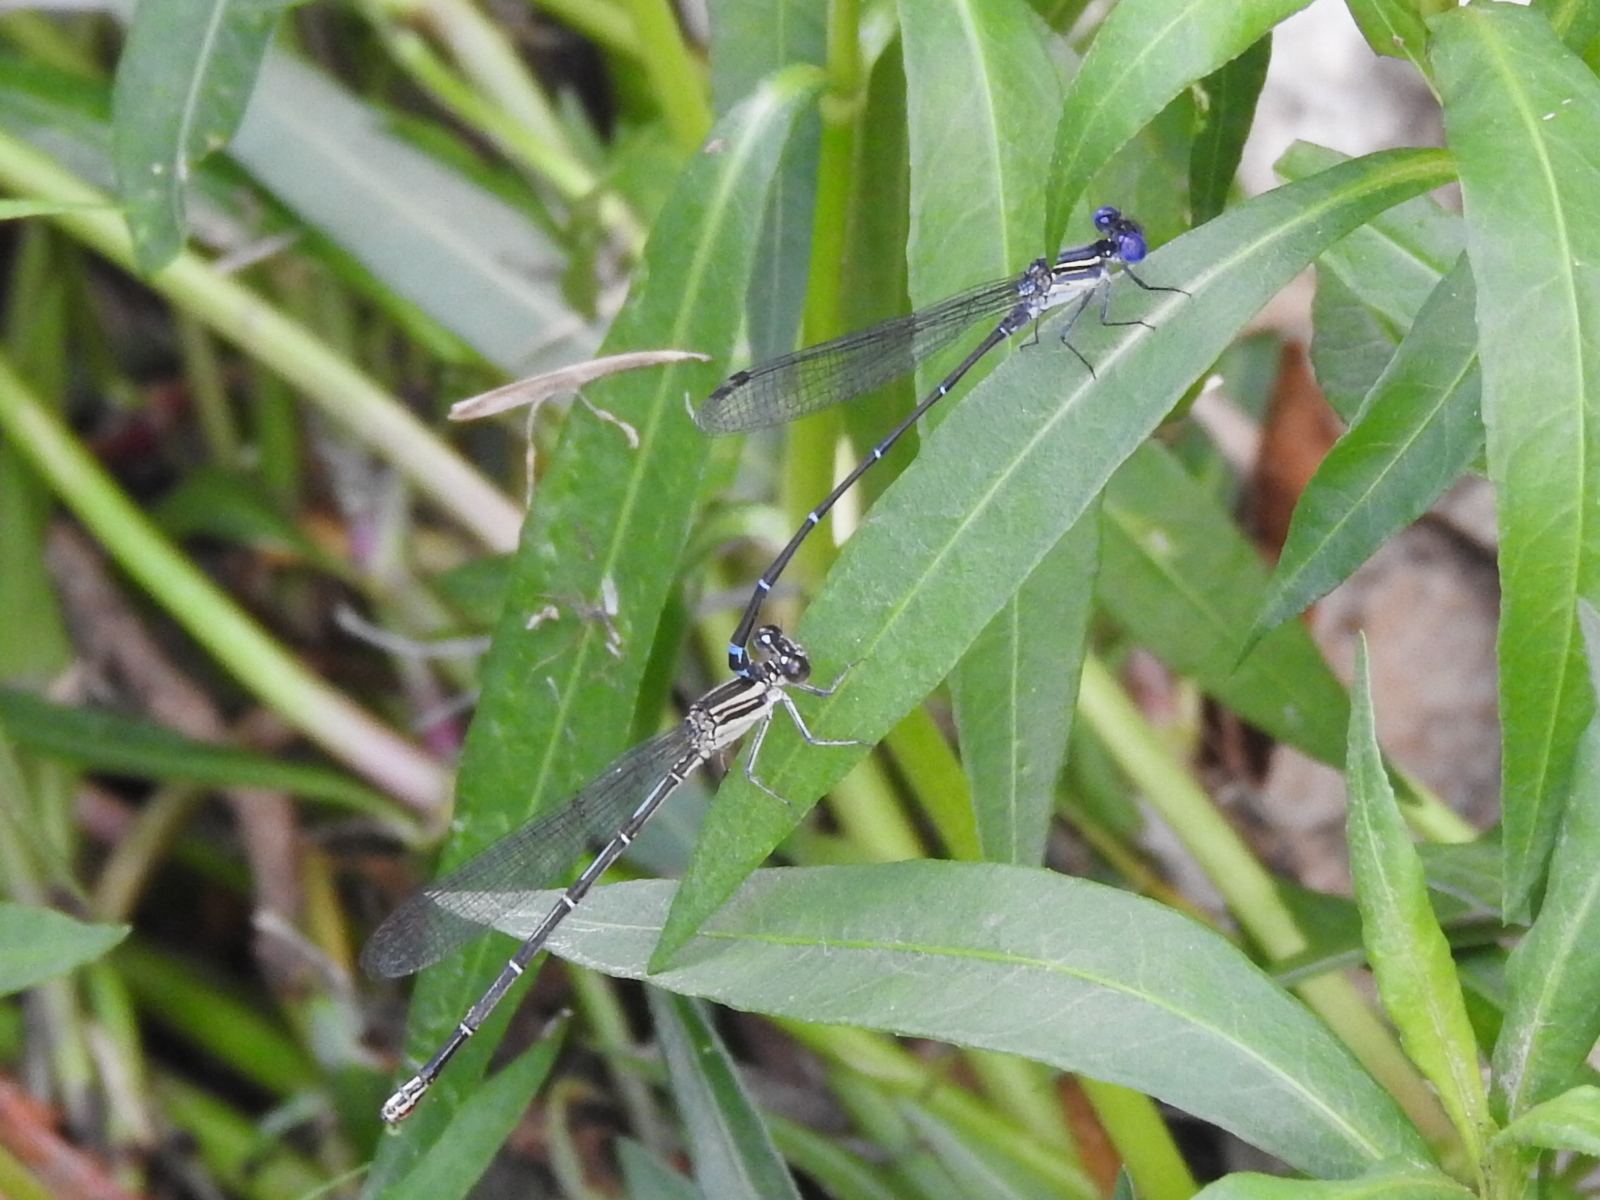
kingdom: Animalia
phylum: Arthropoda
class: Insecta
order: Odonata
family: Coenagrionidae
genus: Argia
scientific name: Argia translata
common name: Dusky dancer
